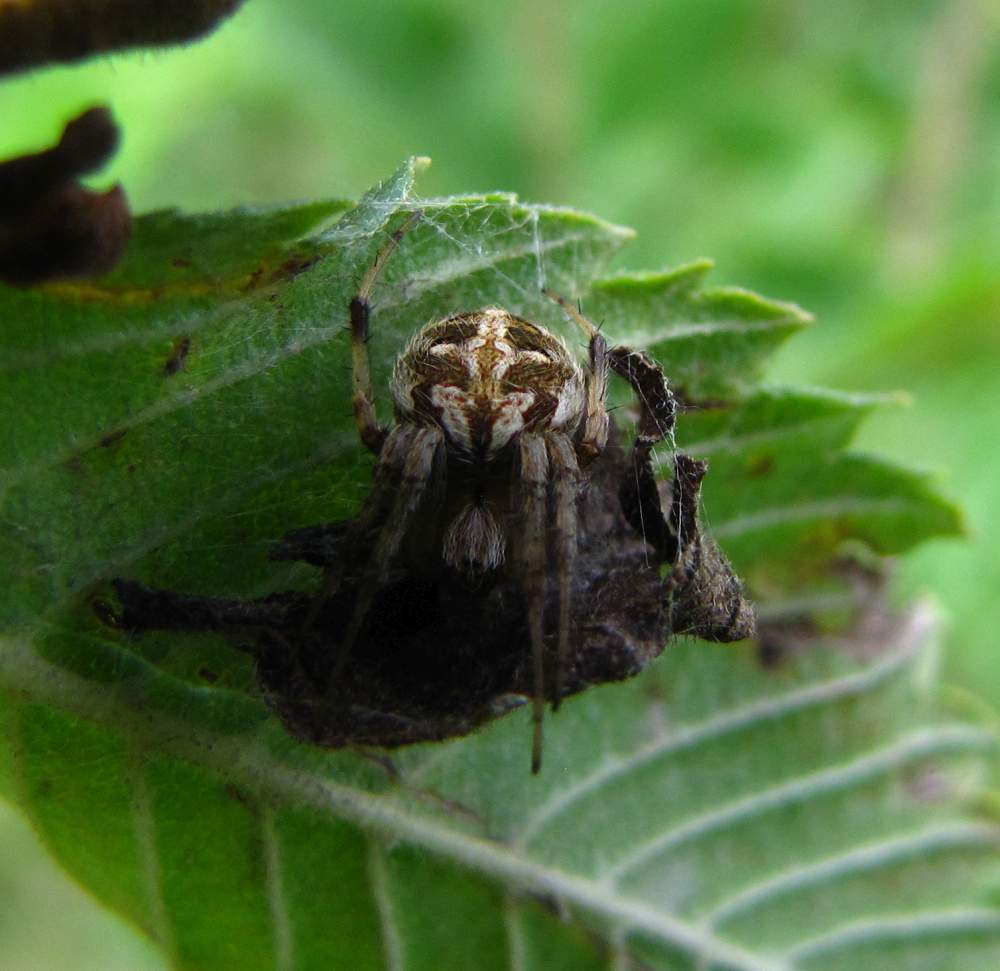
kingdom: Animalia
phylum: Arthropoda
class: Arachnida
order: Araneae
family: Araneidae
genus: Neoscona
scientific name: Neoscona arabesca
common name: Orb weavers
